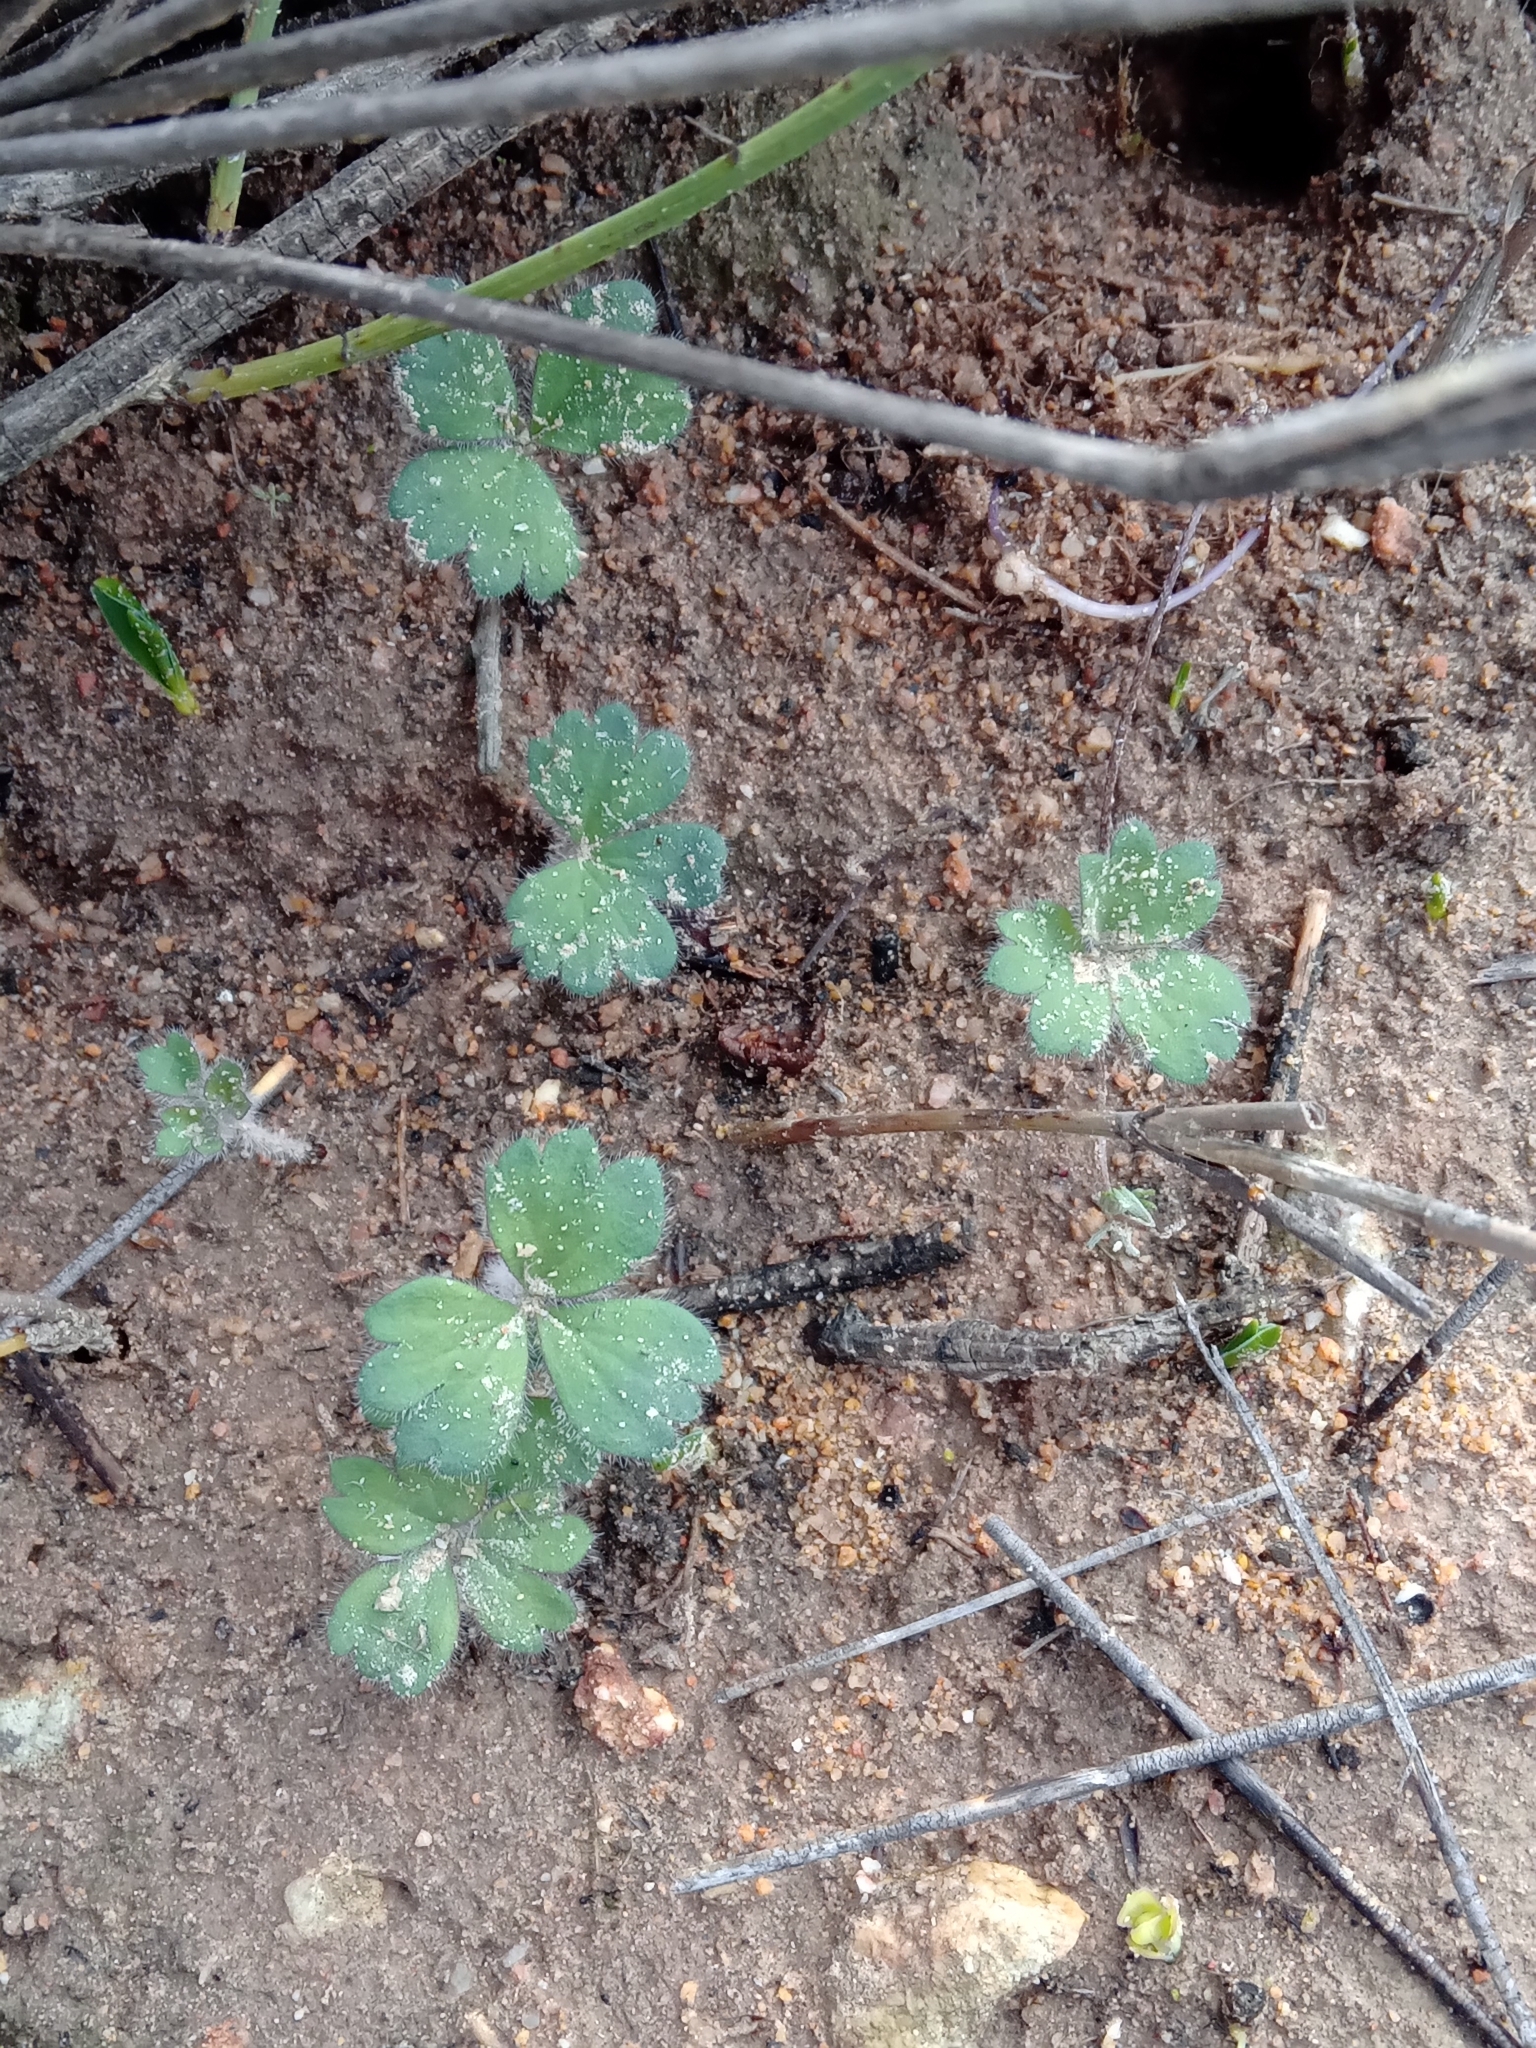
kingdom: Plantae
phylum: Tracheophyta
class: Magnoliopsida
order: Geraniales
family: Geraniaceae
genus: Pelargonium
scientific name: Pelargonium ternifolium
